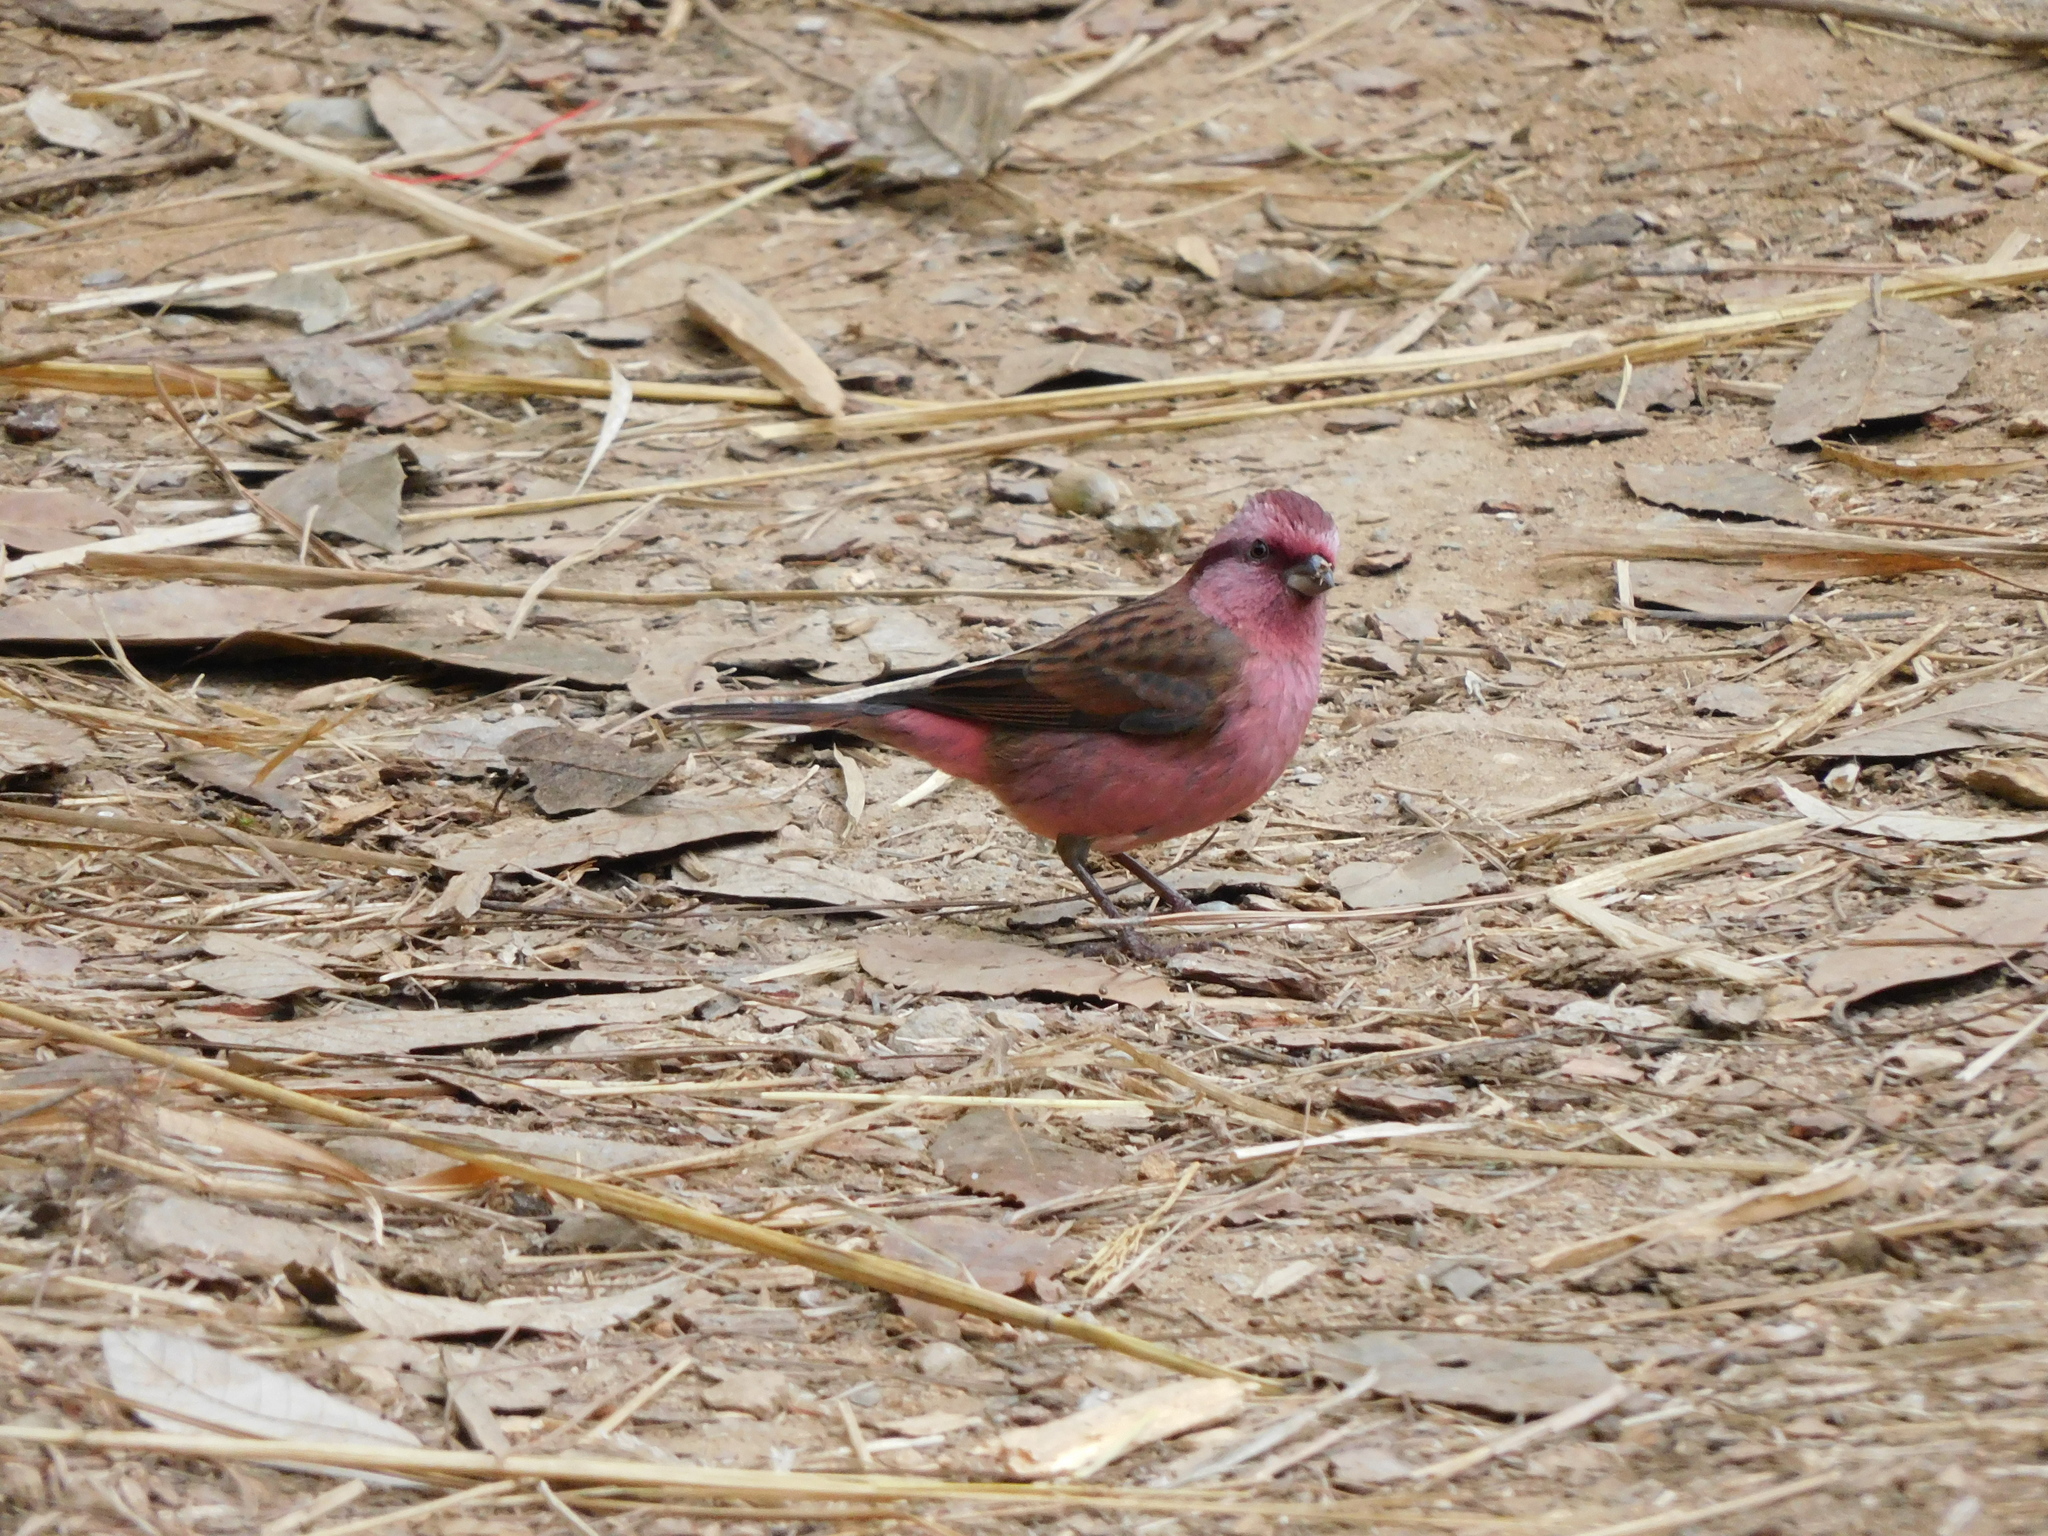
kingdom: Animalia
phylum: Chordata
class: Aves
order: Passeriformes
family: Fringillidae
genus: Carpodacus
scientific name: Carpodacus rodochroa
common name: Pink-browed rosefinch
